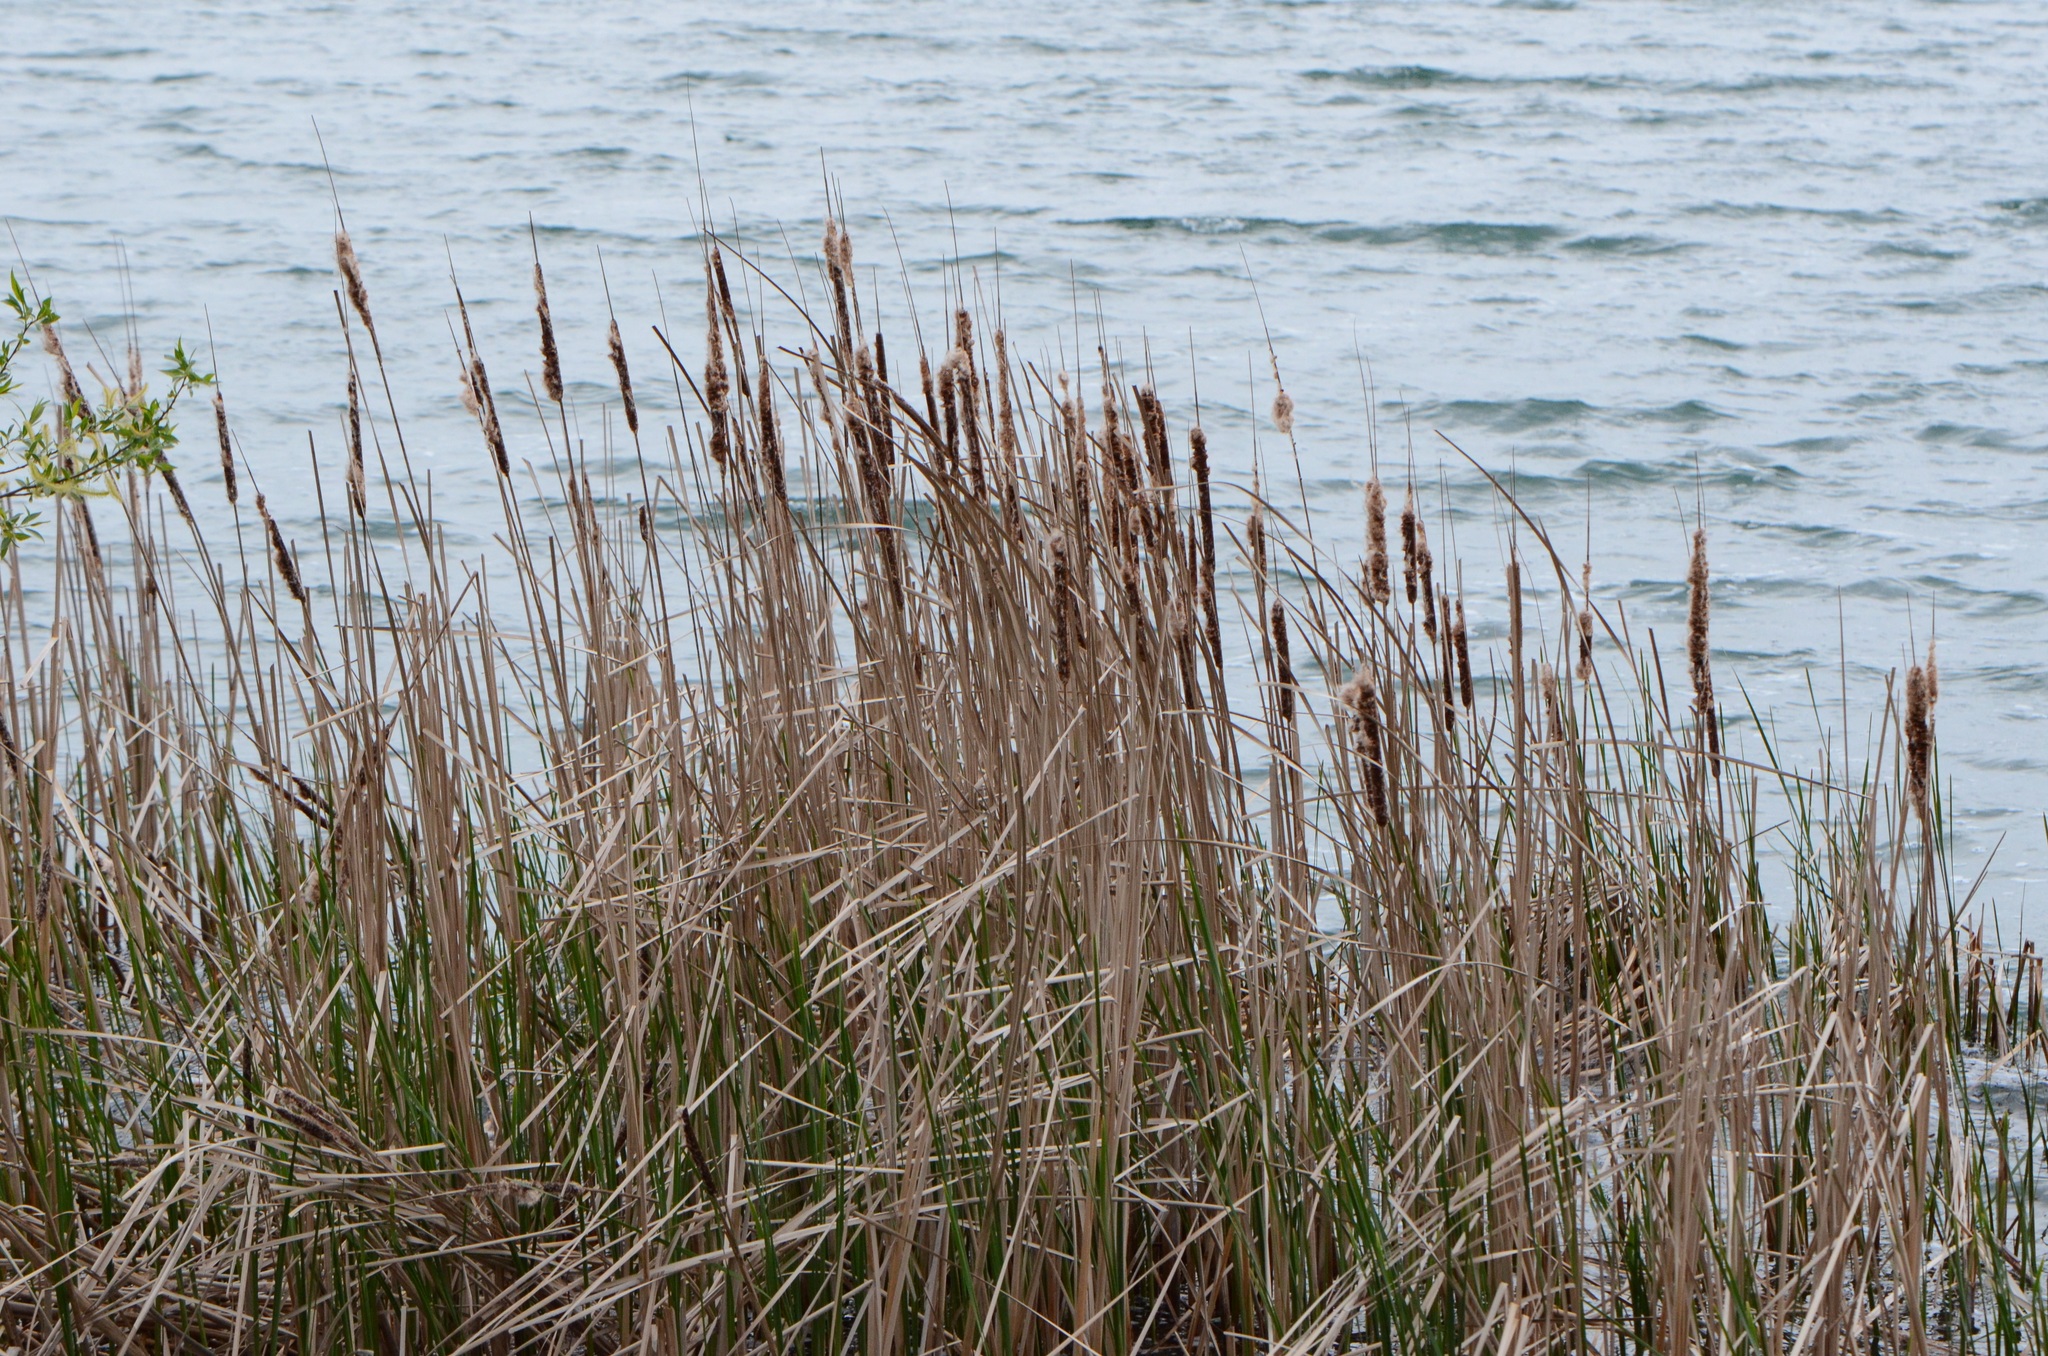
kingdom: Plantae
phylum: Tracheophyta
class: Liliopsida
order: Poales
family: Typhaceae
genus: Typha
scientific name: Typha latifolia
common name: Broadleaf cattail
